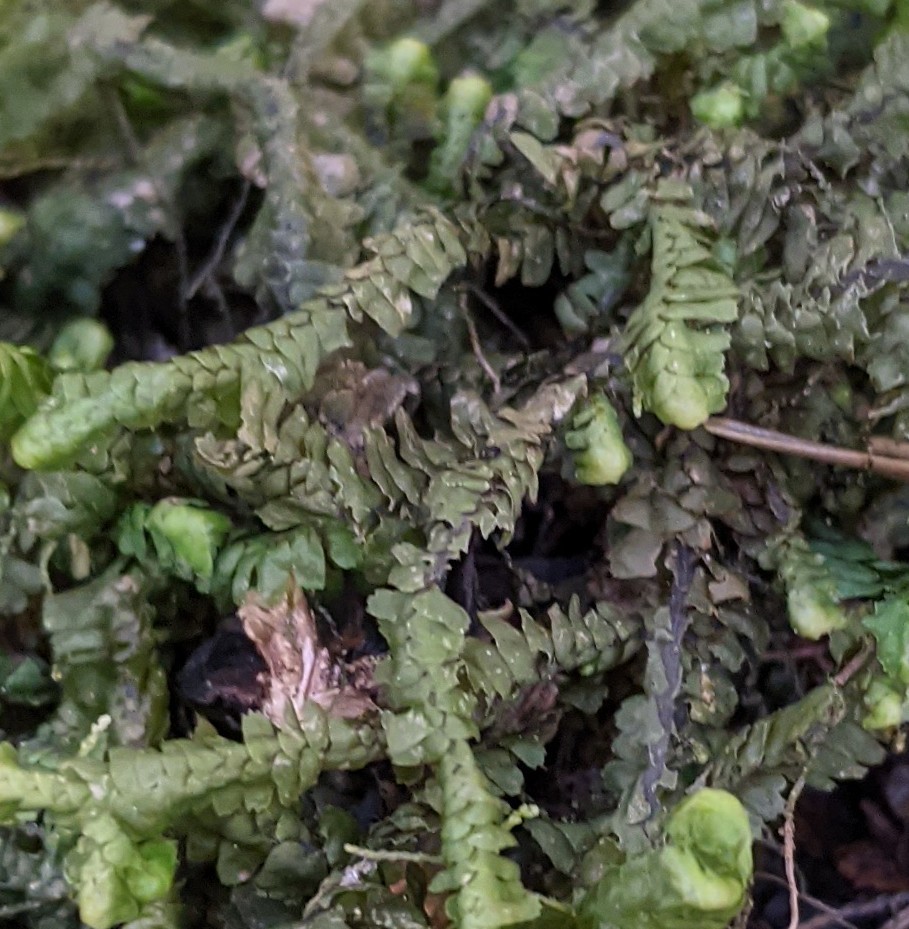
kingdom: Plantae
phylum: Marchantiophyta
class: Jungermanniopsida
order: Jungermanniales
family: Lepidoziaceae
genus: Bazzania
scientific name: Bazzania trilobata
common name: Three-lobed whipwort
